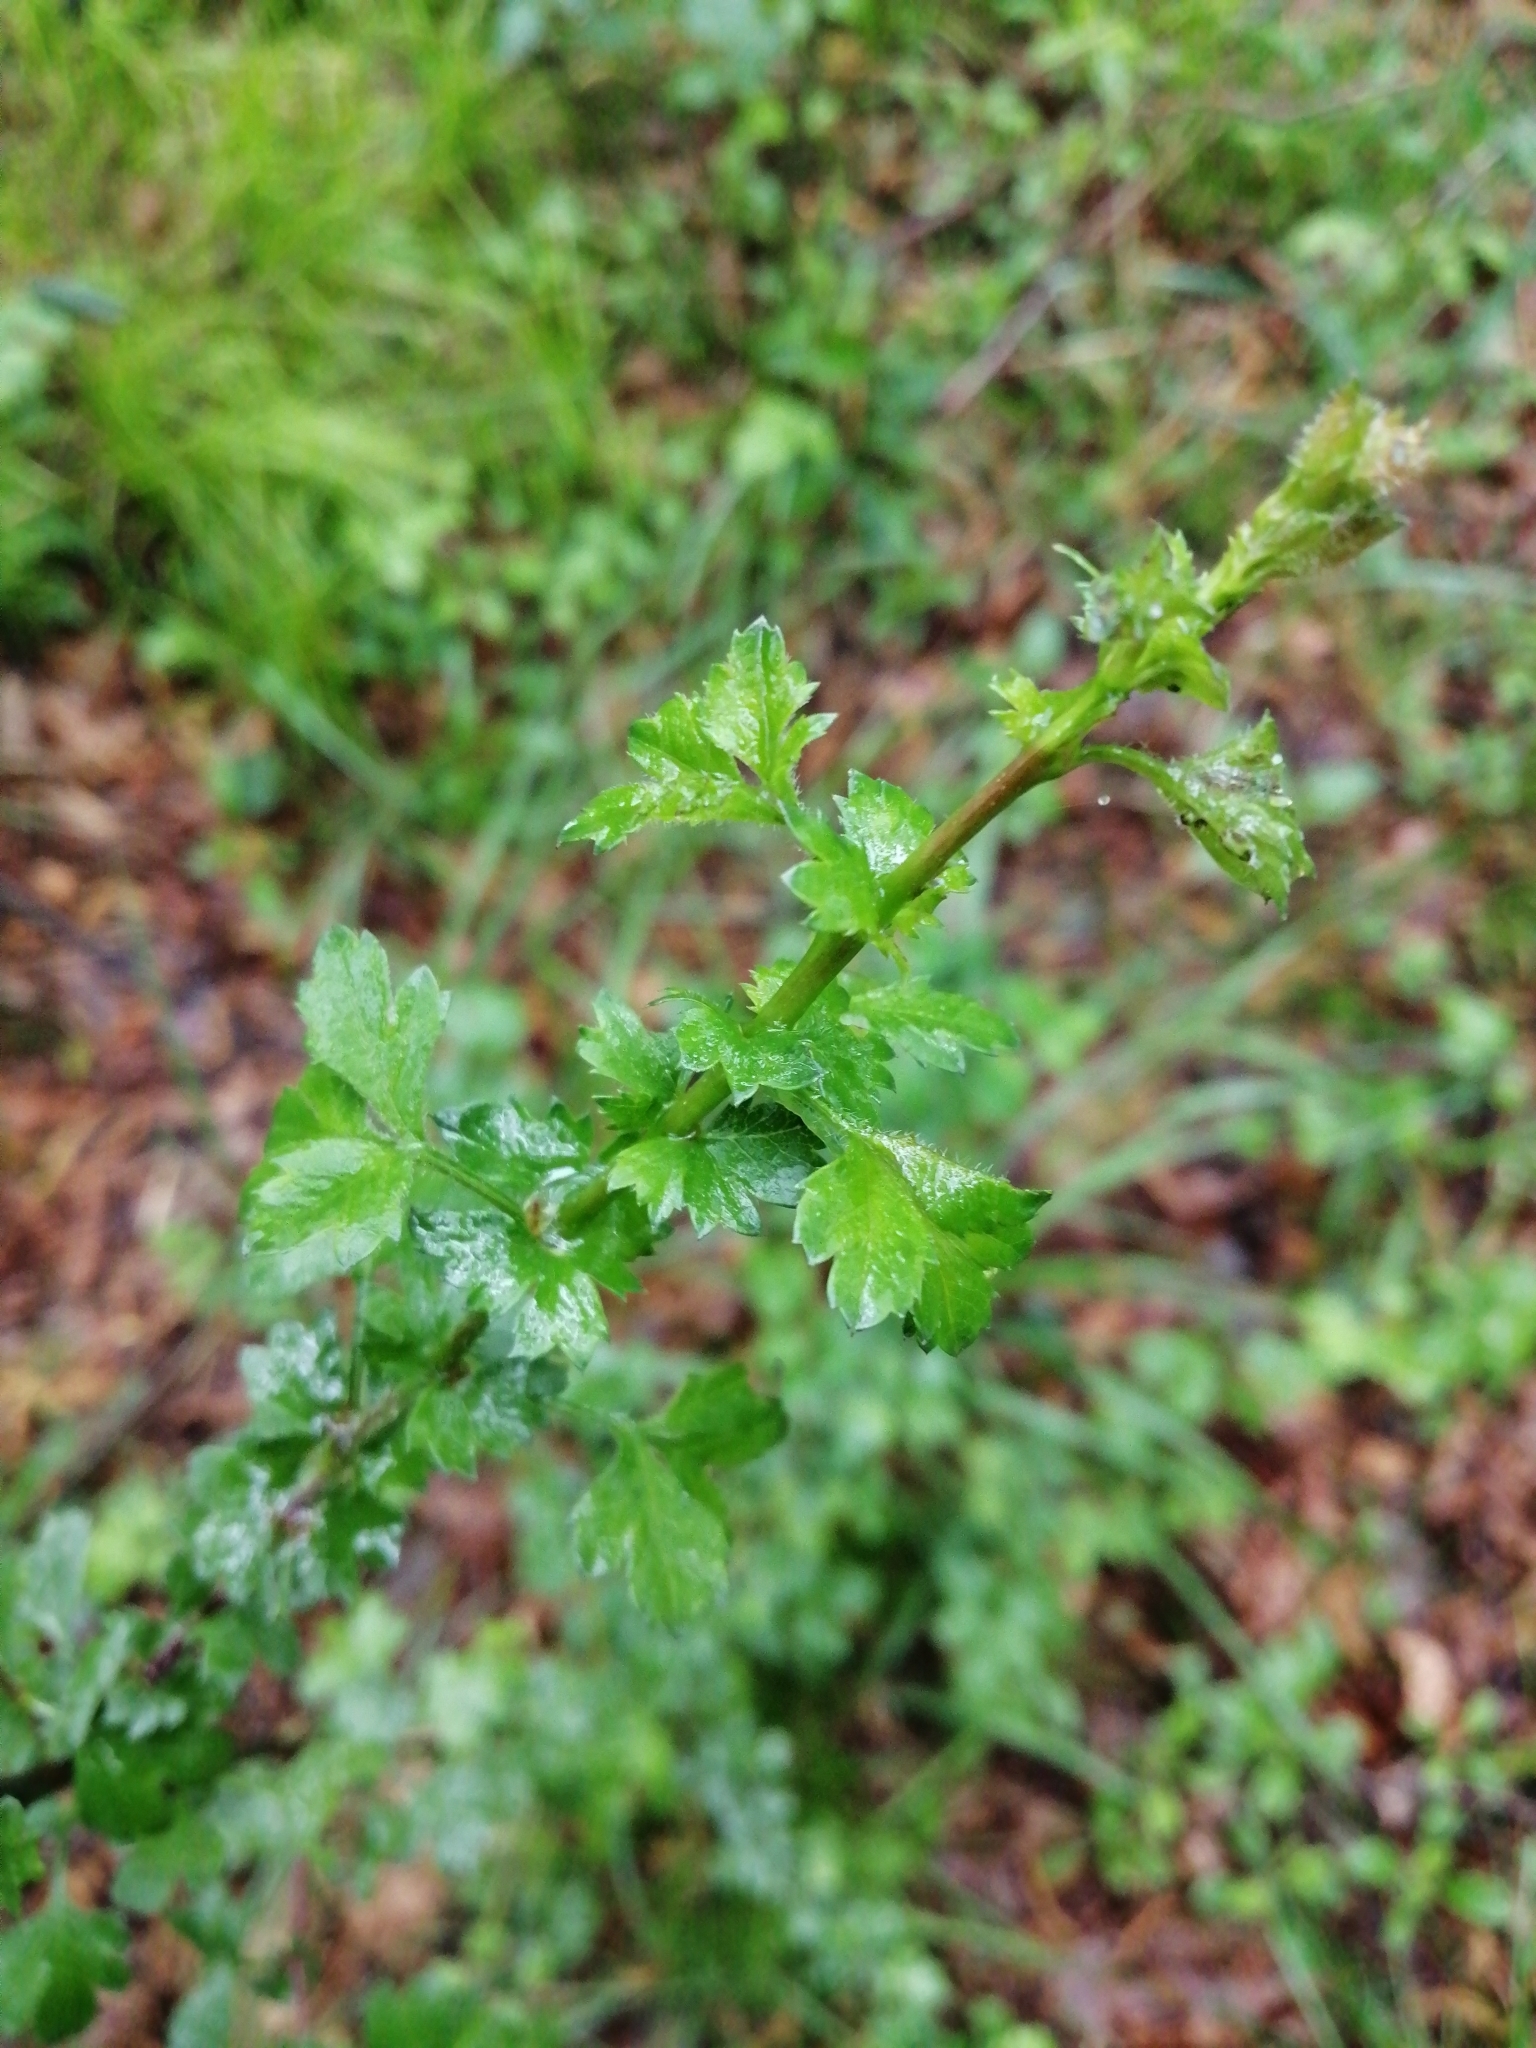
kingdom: Plantae
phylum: Tracheophyta
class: Magnoliopsida
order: Rosales
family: Rosaceae
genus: Crataegus
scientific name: Crataegus monogyna
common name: Hawthorn
